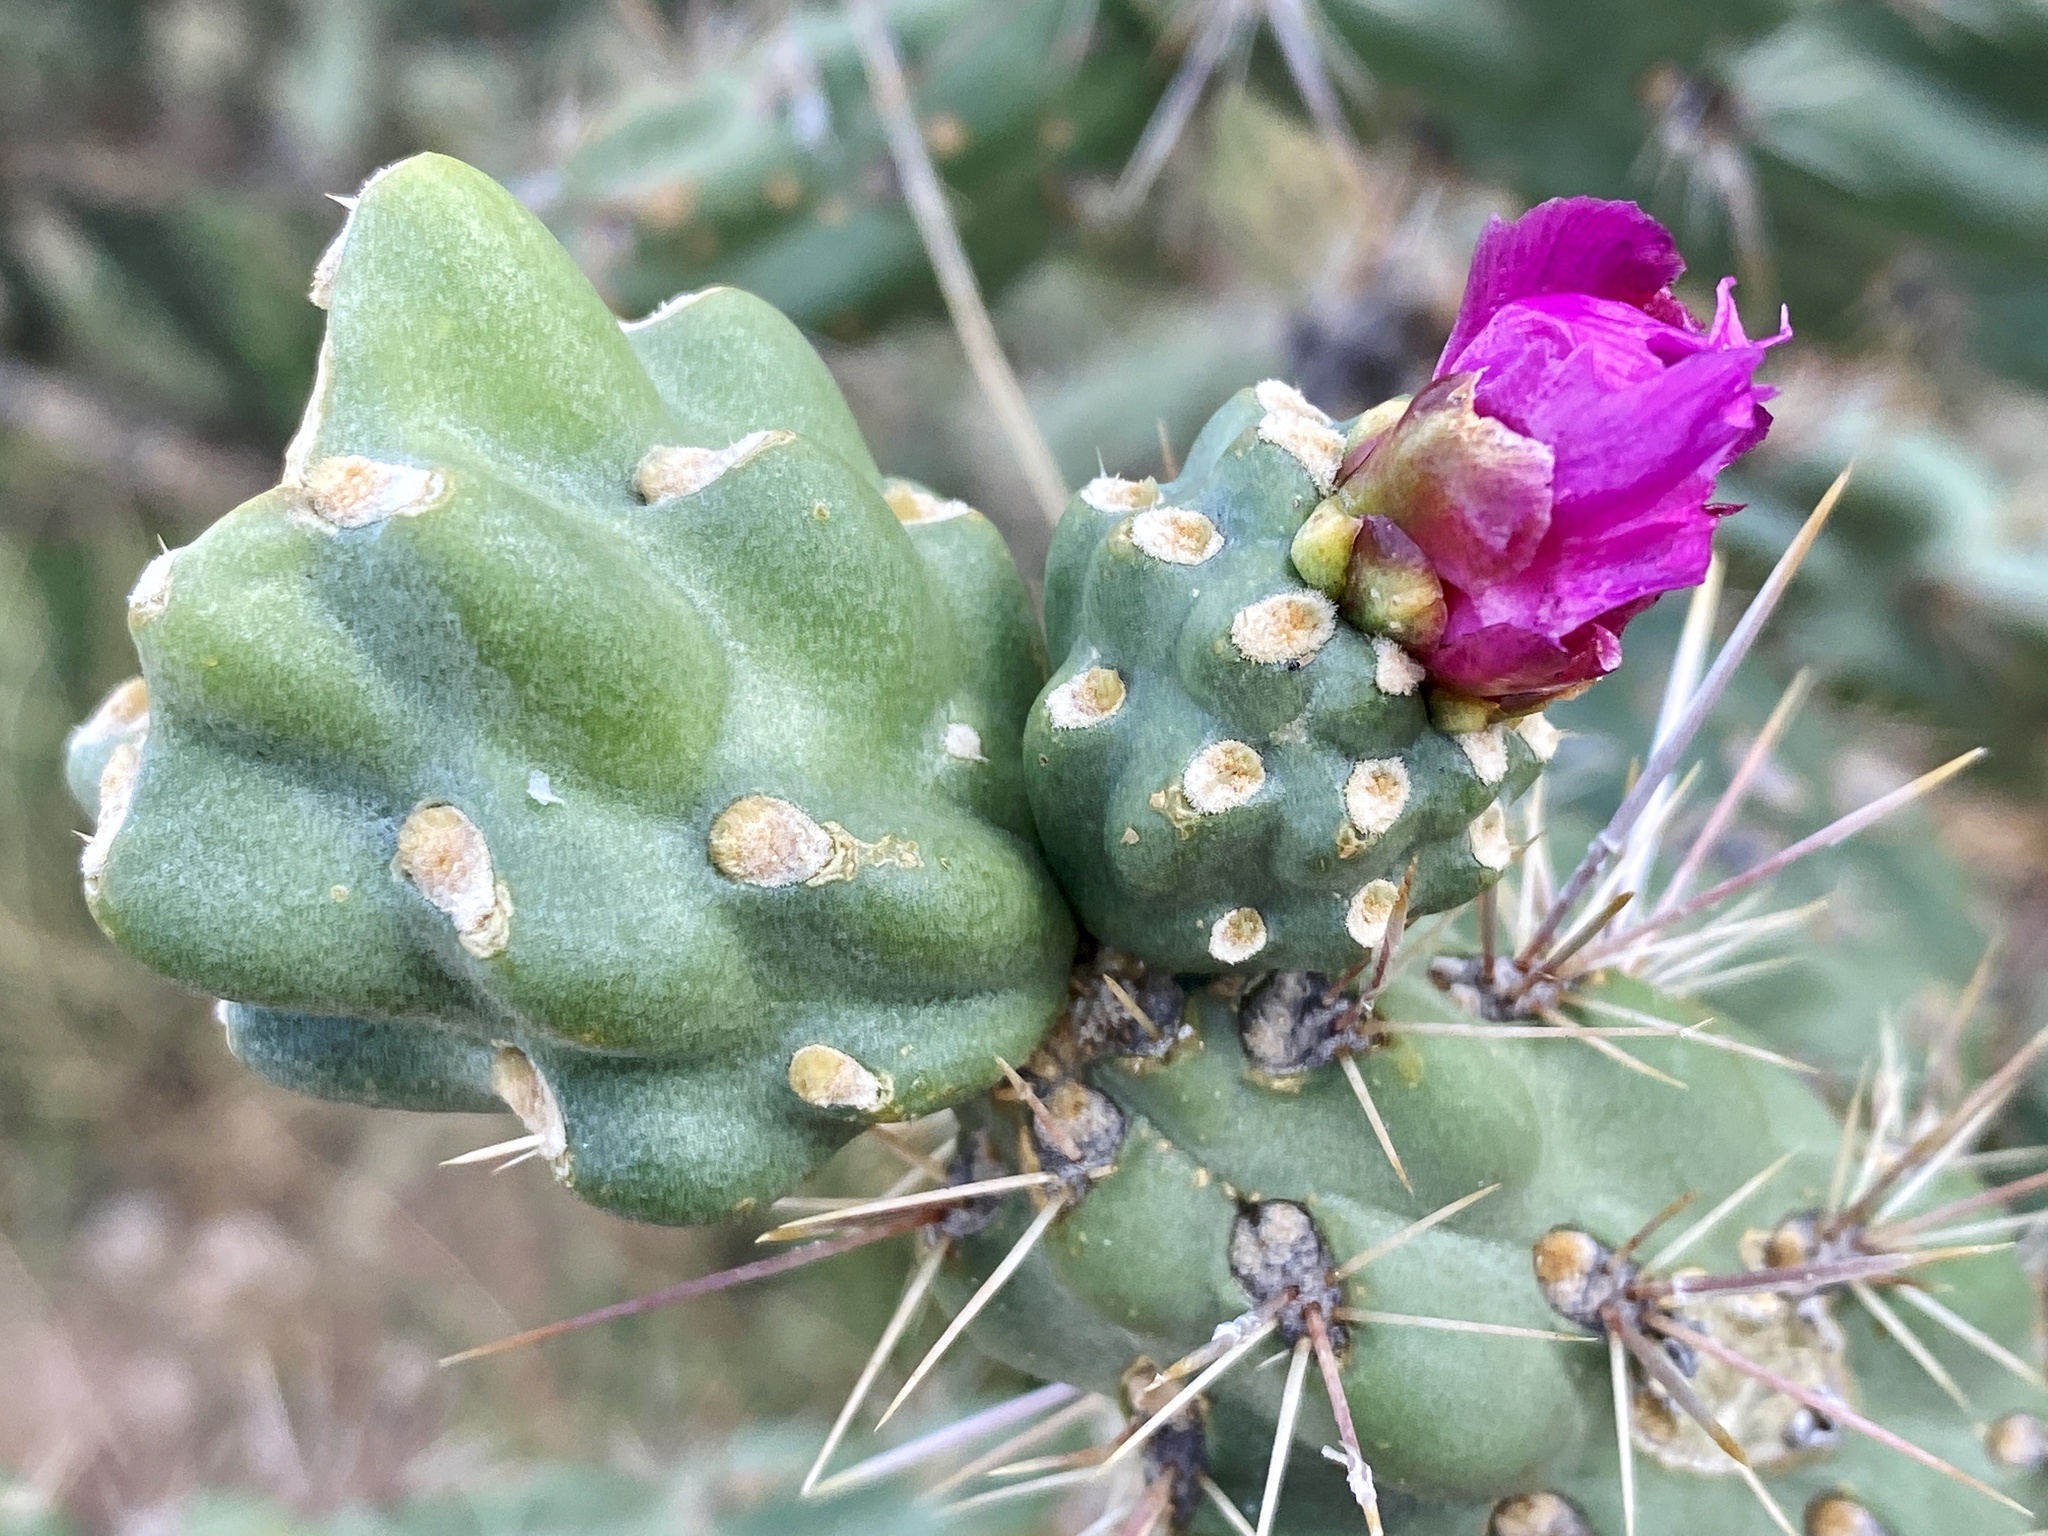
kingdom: Plantae
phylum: Tracheophyta
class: Magnoliopsida
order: Caryophyllales
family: Cactaceae
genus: Cylindropuntia
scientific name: Cylindropuntia imbricata
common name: Candelabrum cactus
